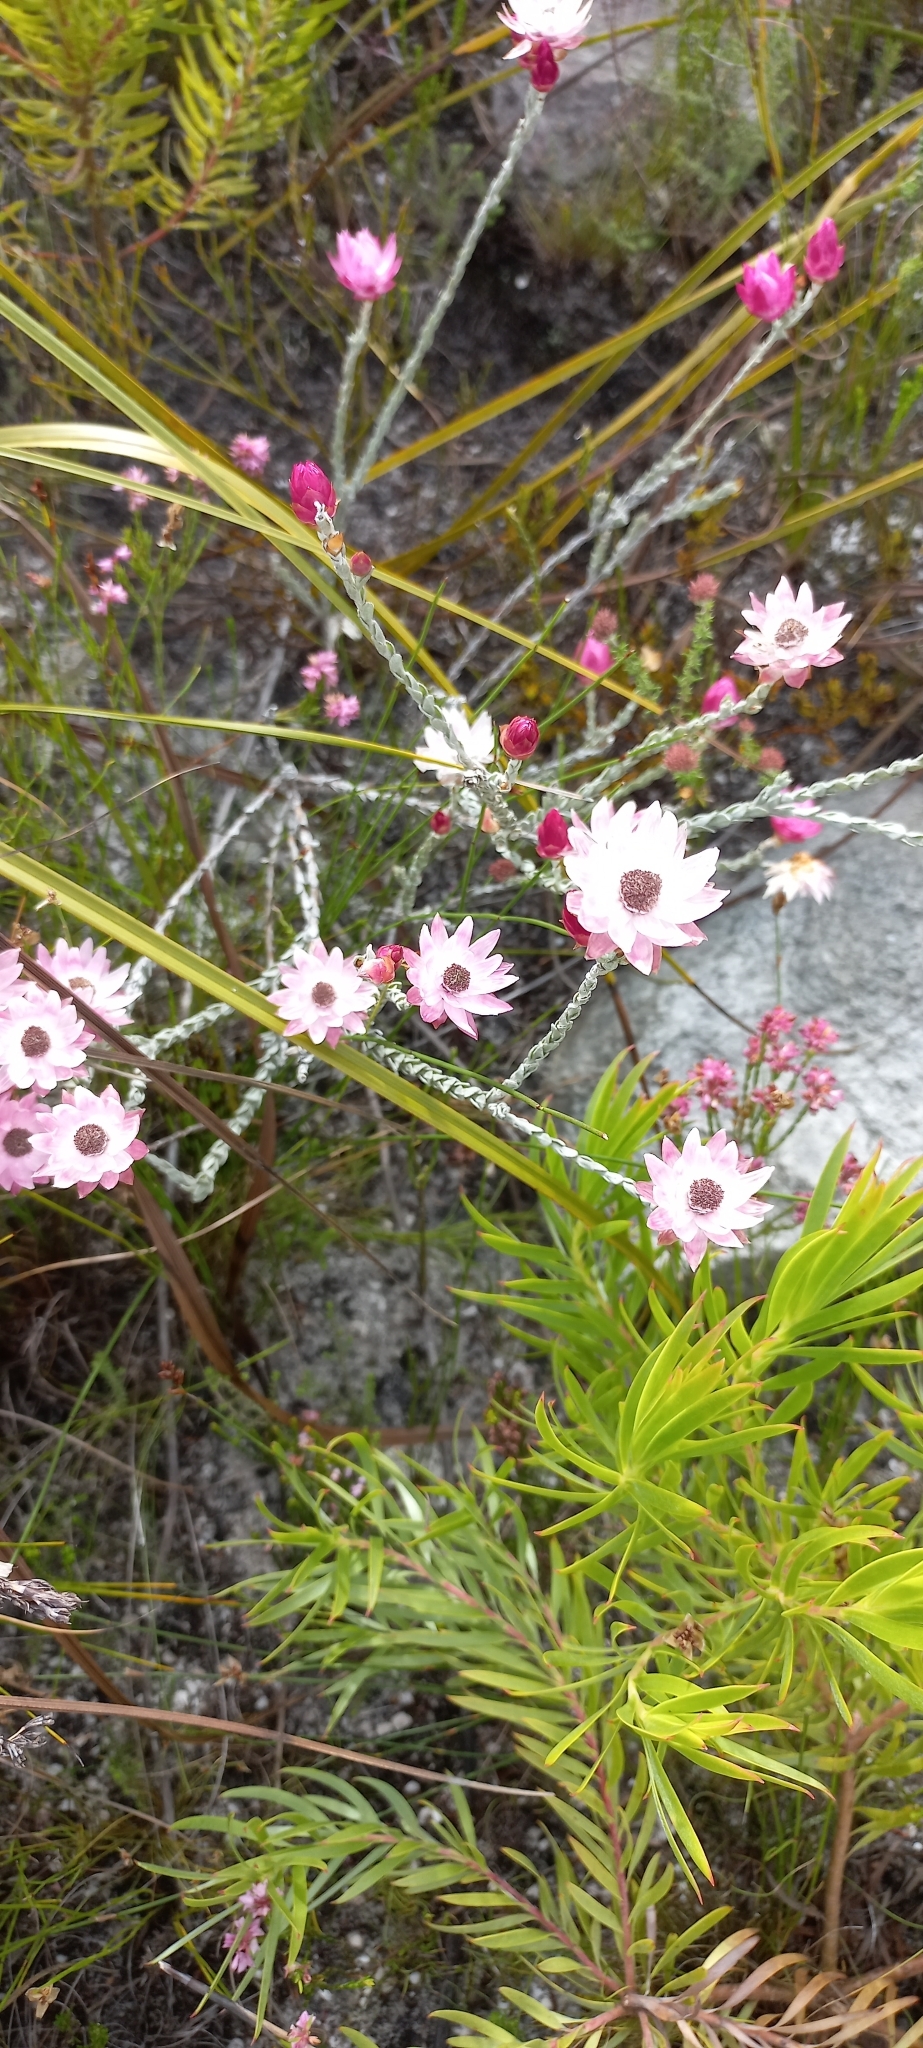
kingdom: Plantae
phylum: Tracheophyta
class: Magnoliopsida
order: Asterales
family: Asteraceae
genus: Syncarpha
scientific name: Syncarpha canescens
